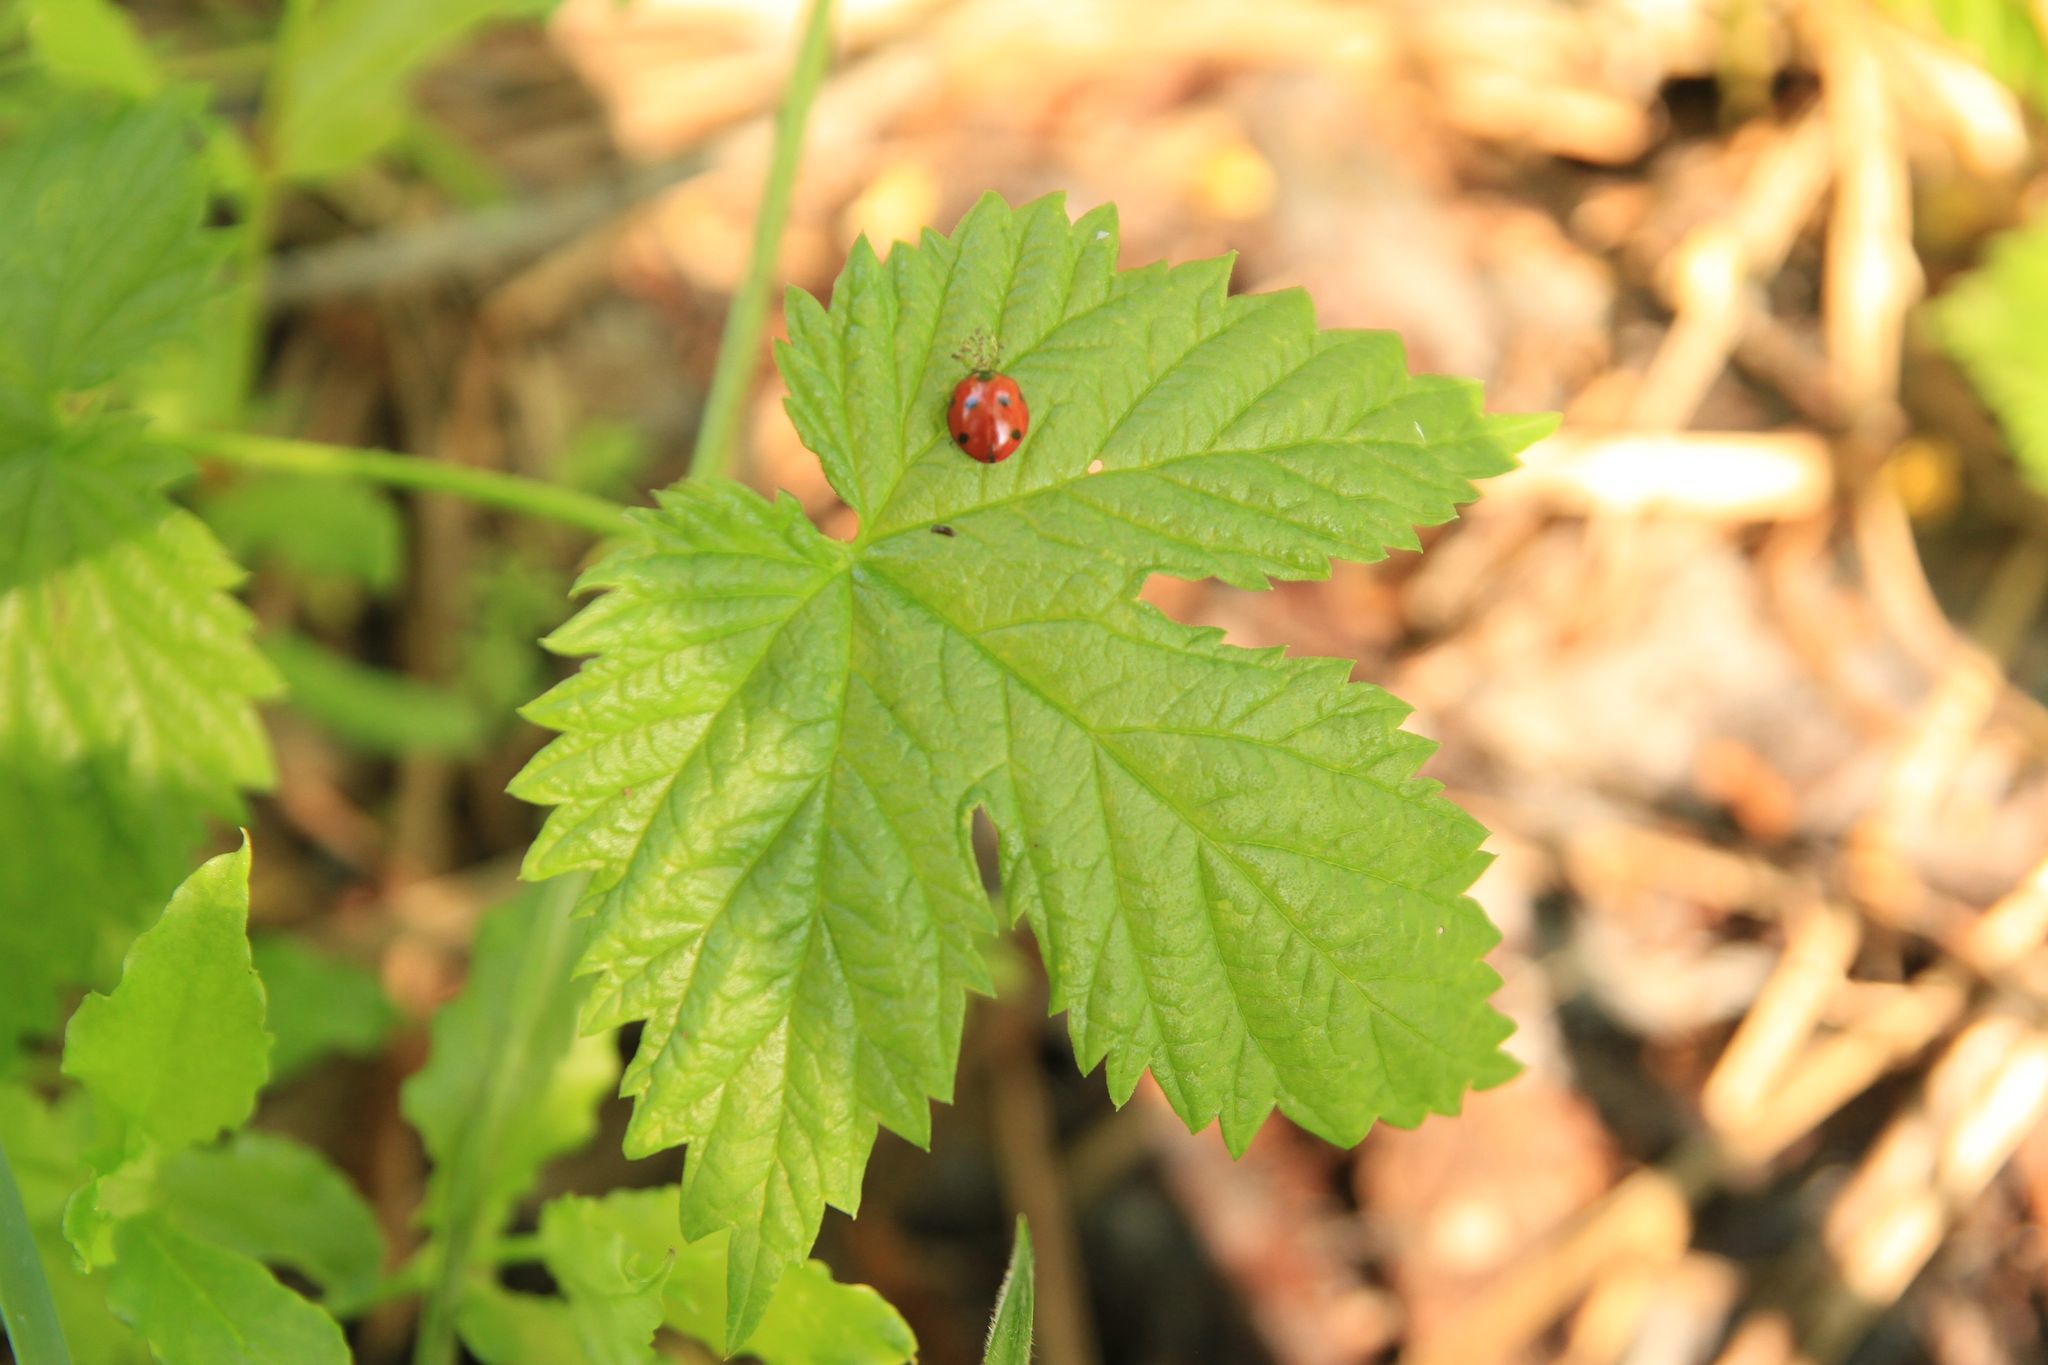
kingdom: Animalia
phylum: Arthropoda
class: Insecta
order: Coleoptera
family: Coccinellidae
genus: Coccinella
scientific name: Coccinella septempunctata
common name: Sevenspotted lady beetle
